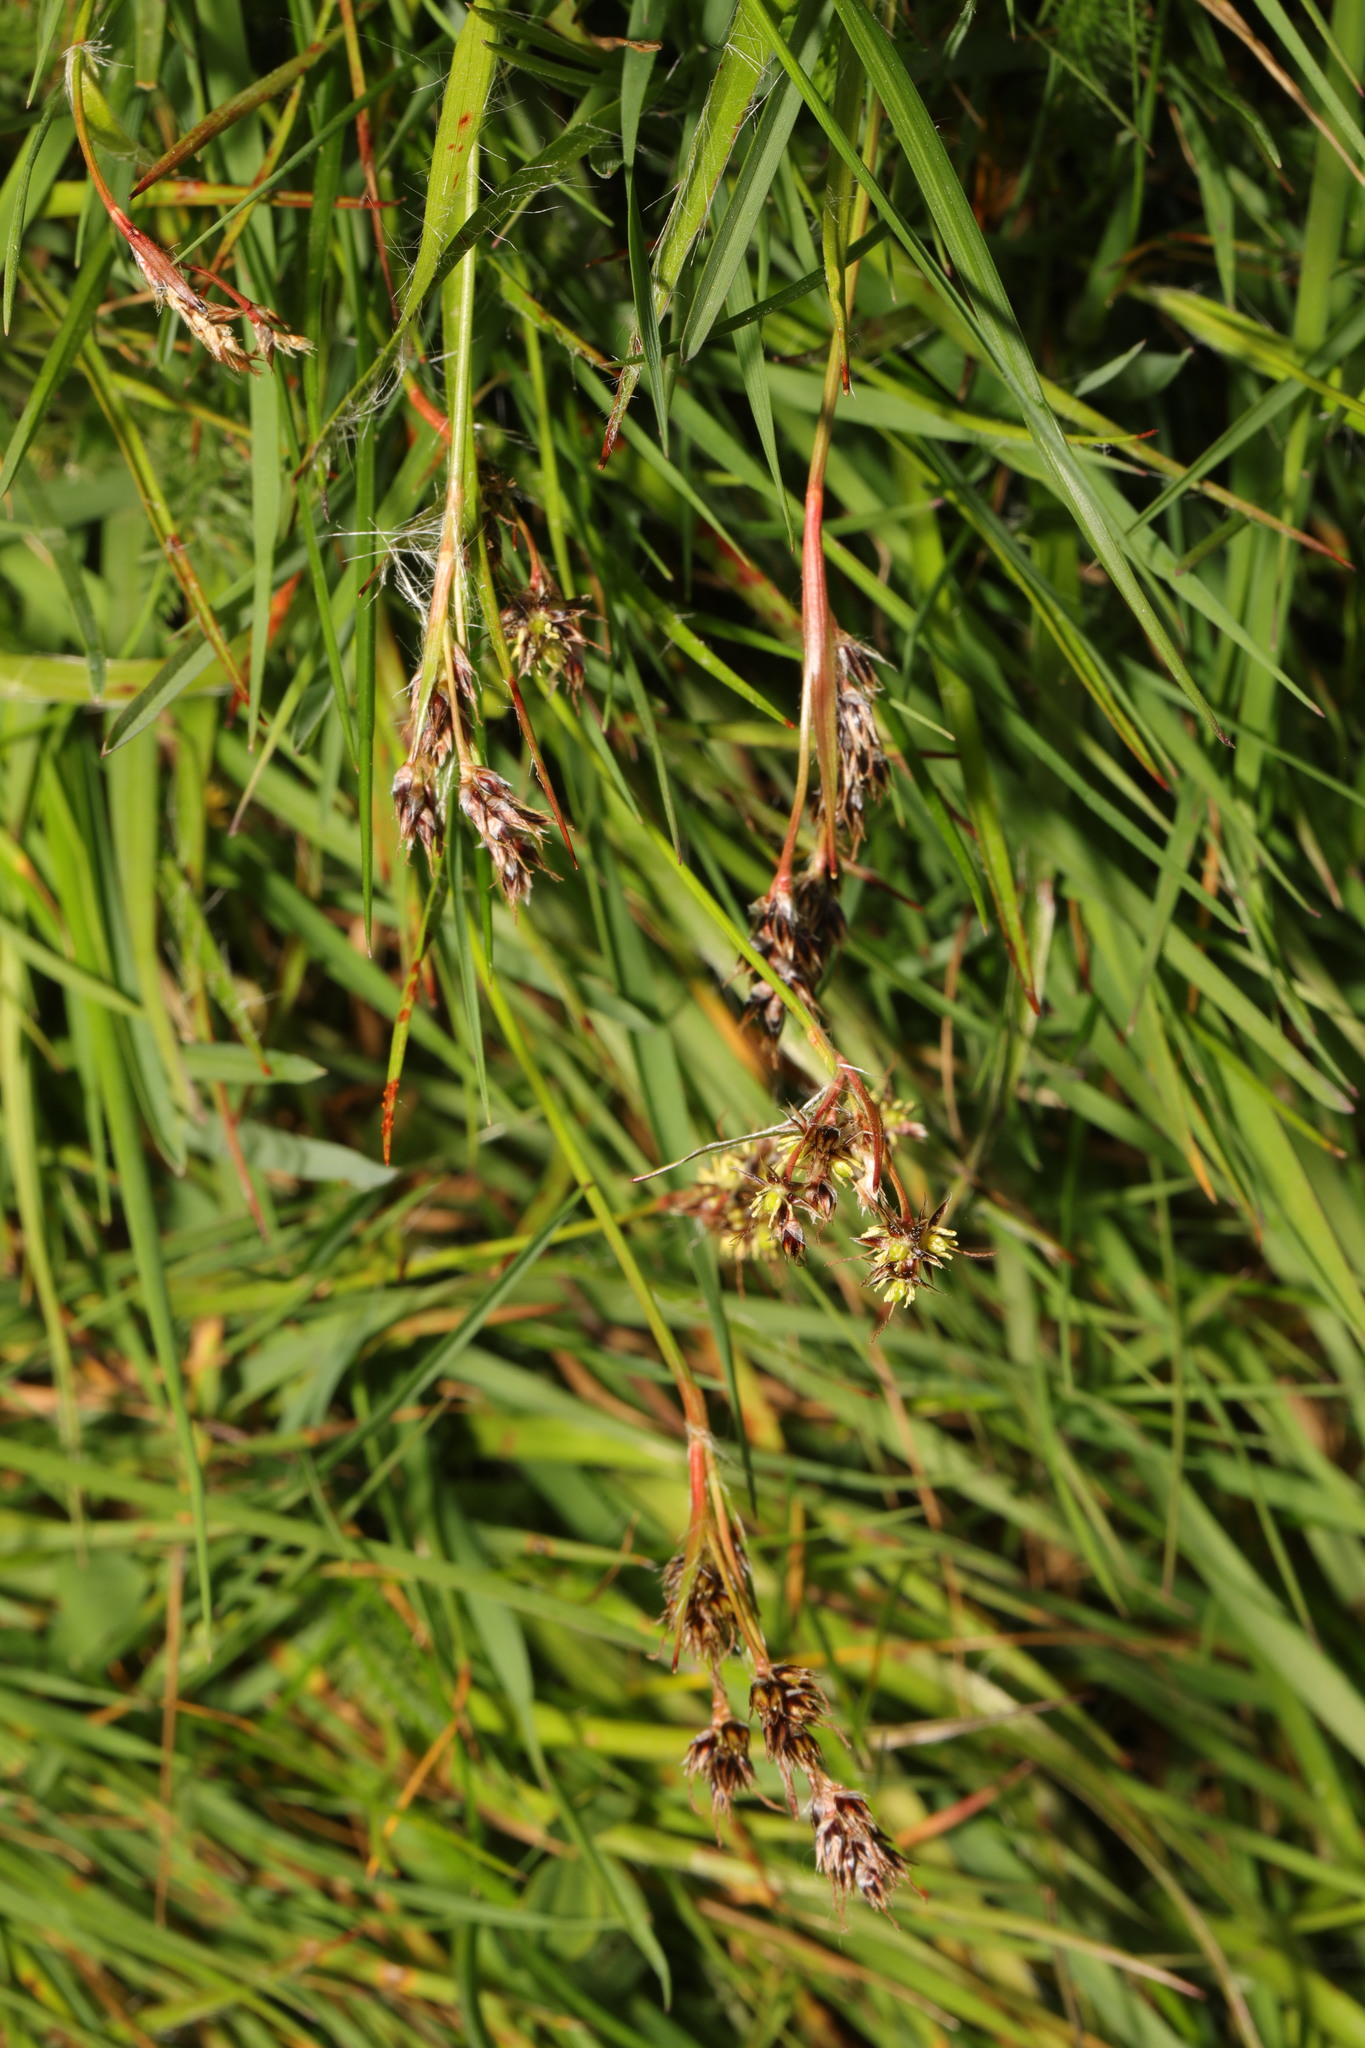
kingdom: Plantae
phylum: Tracheophyta
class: Liliopsida
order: Poales
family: Juncaceae
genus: Luzula
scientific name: Luzula campestris
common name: Field wood-rush
